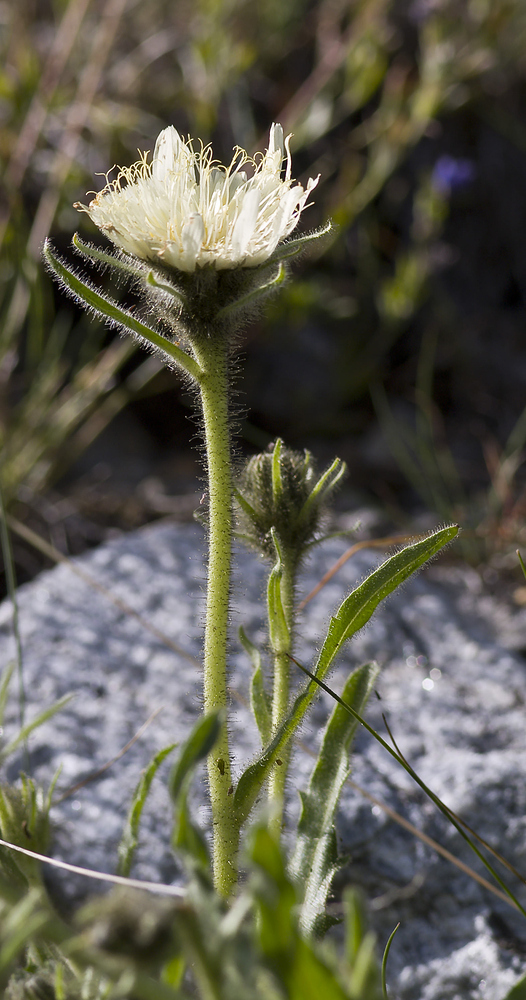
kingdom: Plantae
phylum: Tracheophyta
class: Magnoliopsida
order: Asterales
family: Asteraceae
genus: Schlagintweitia
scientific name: Schlagintweitia intybacea
